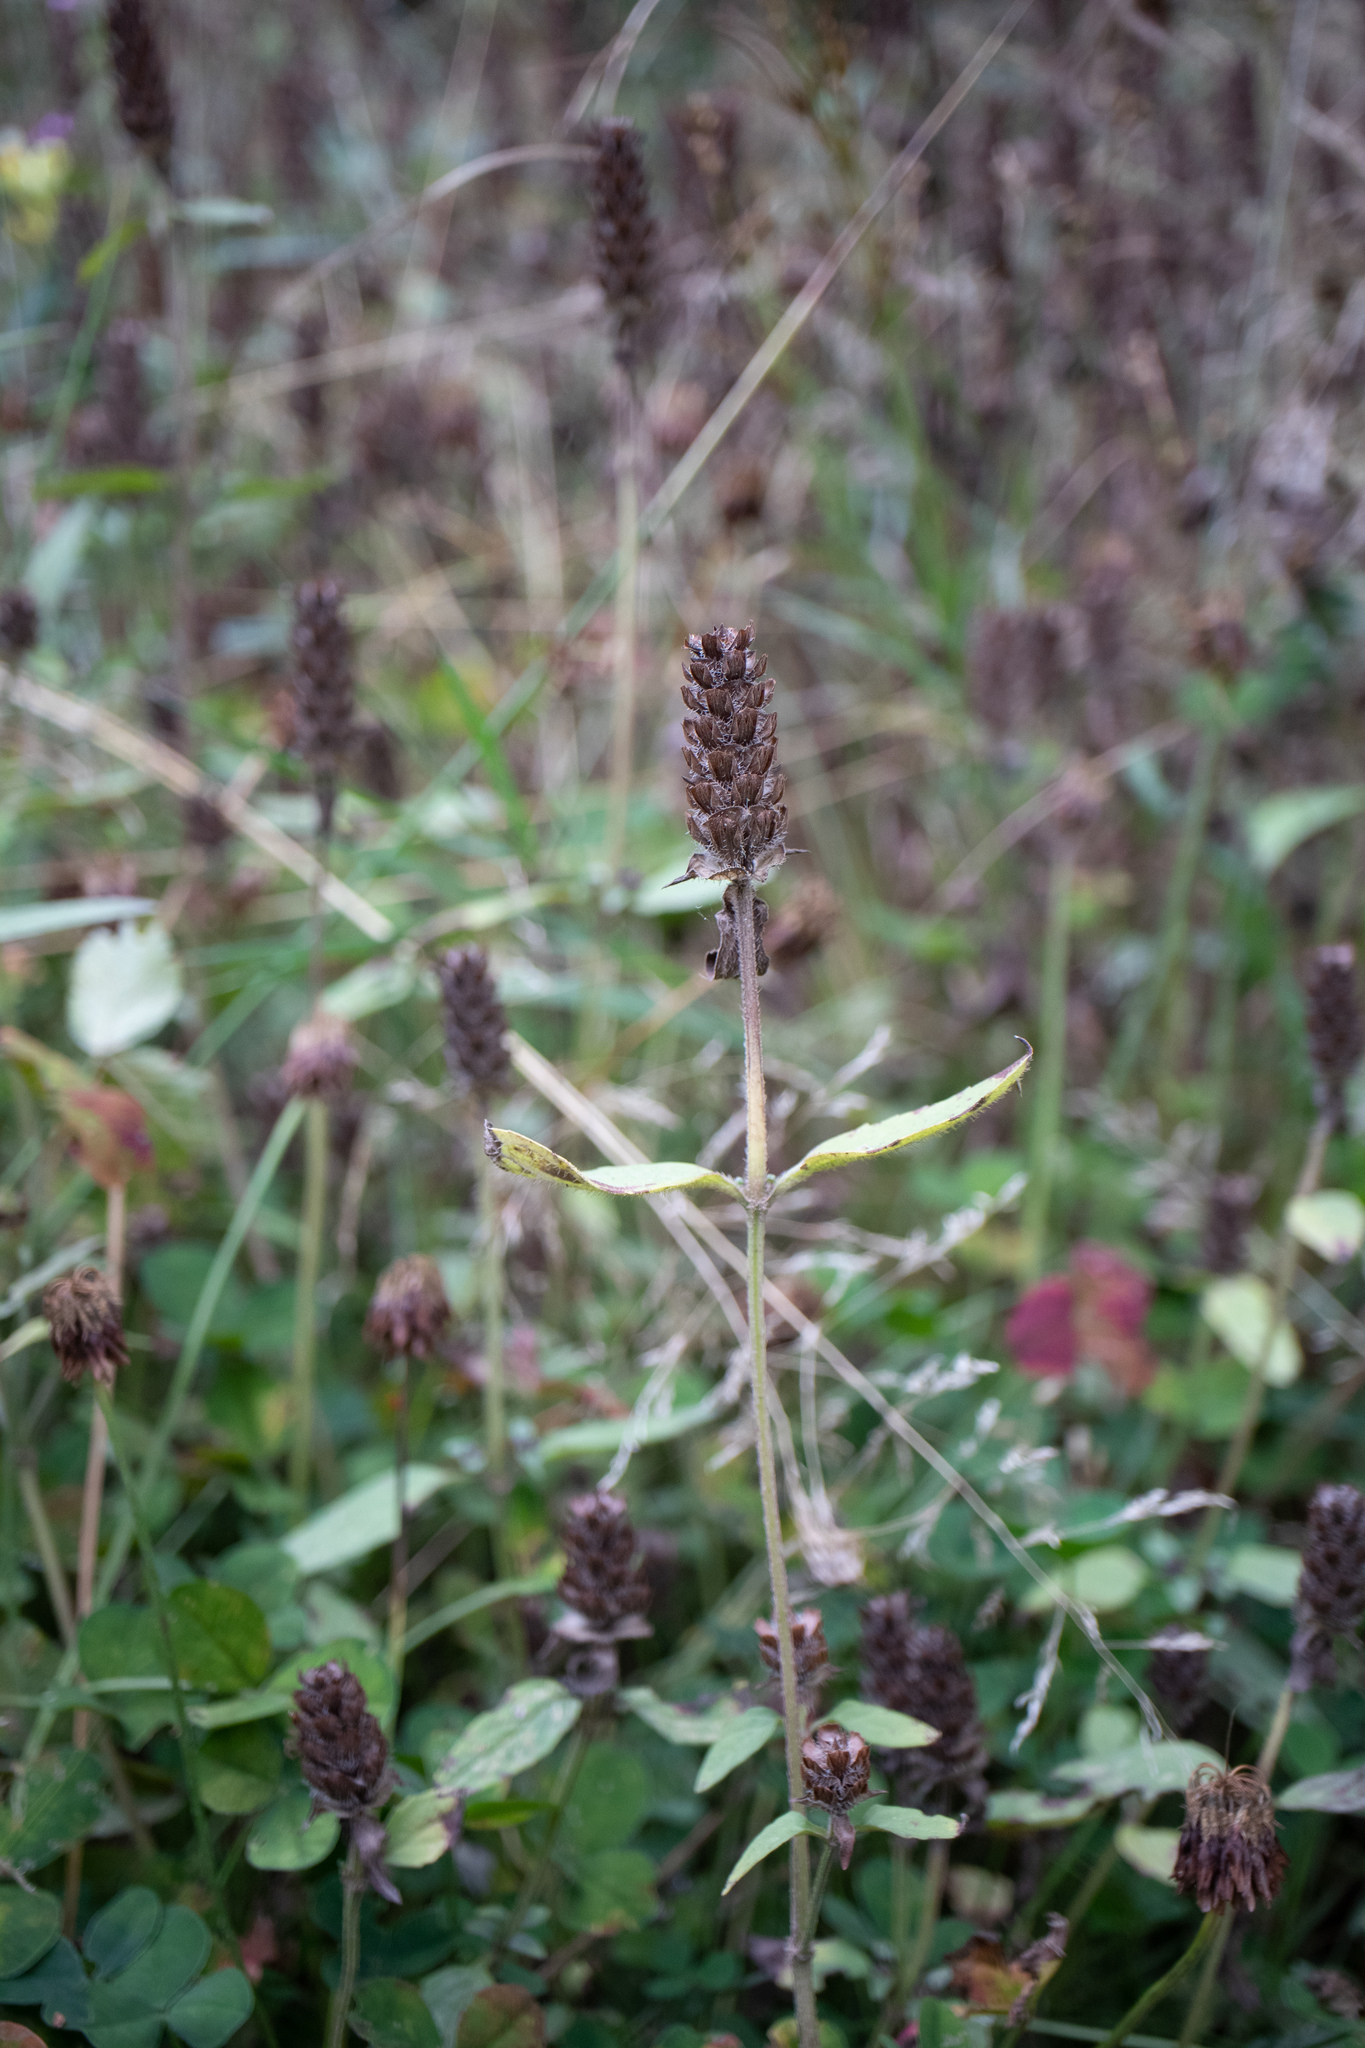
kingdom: Plantae
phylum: Tracheophyta
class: Magnoliopsida
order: Lamiales
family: Lamiaceae
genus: Prunella
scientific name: Prunella vulgaris
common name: Heal-all
